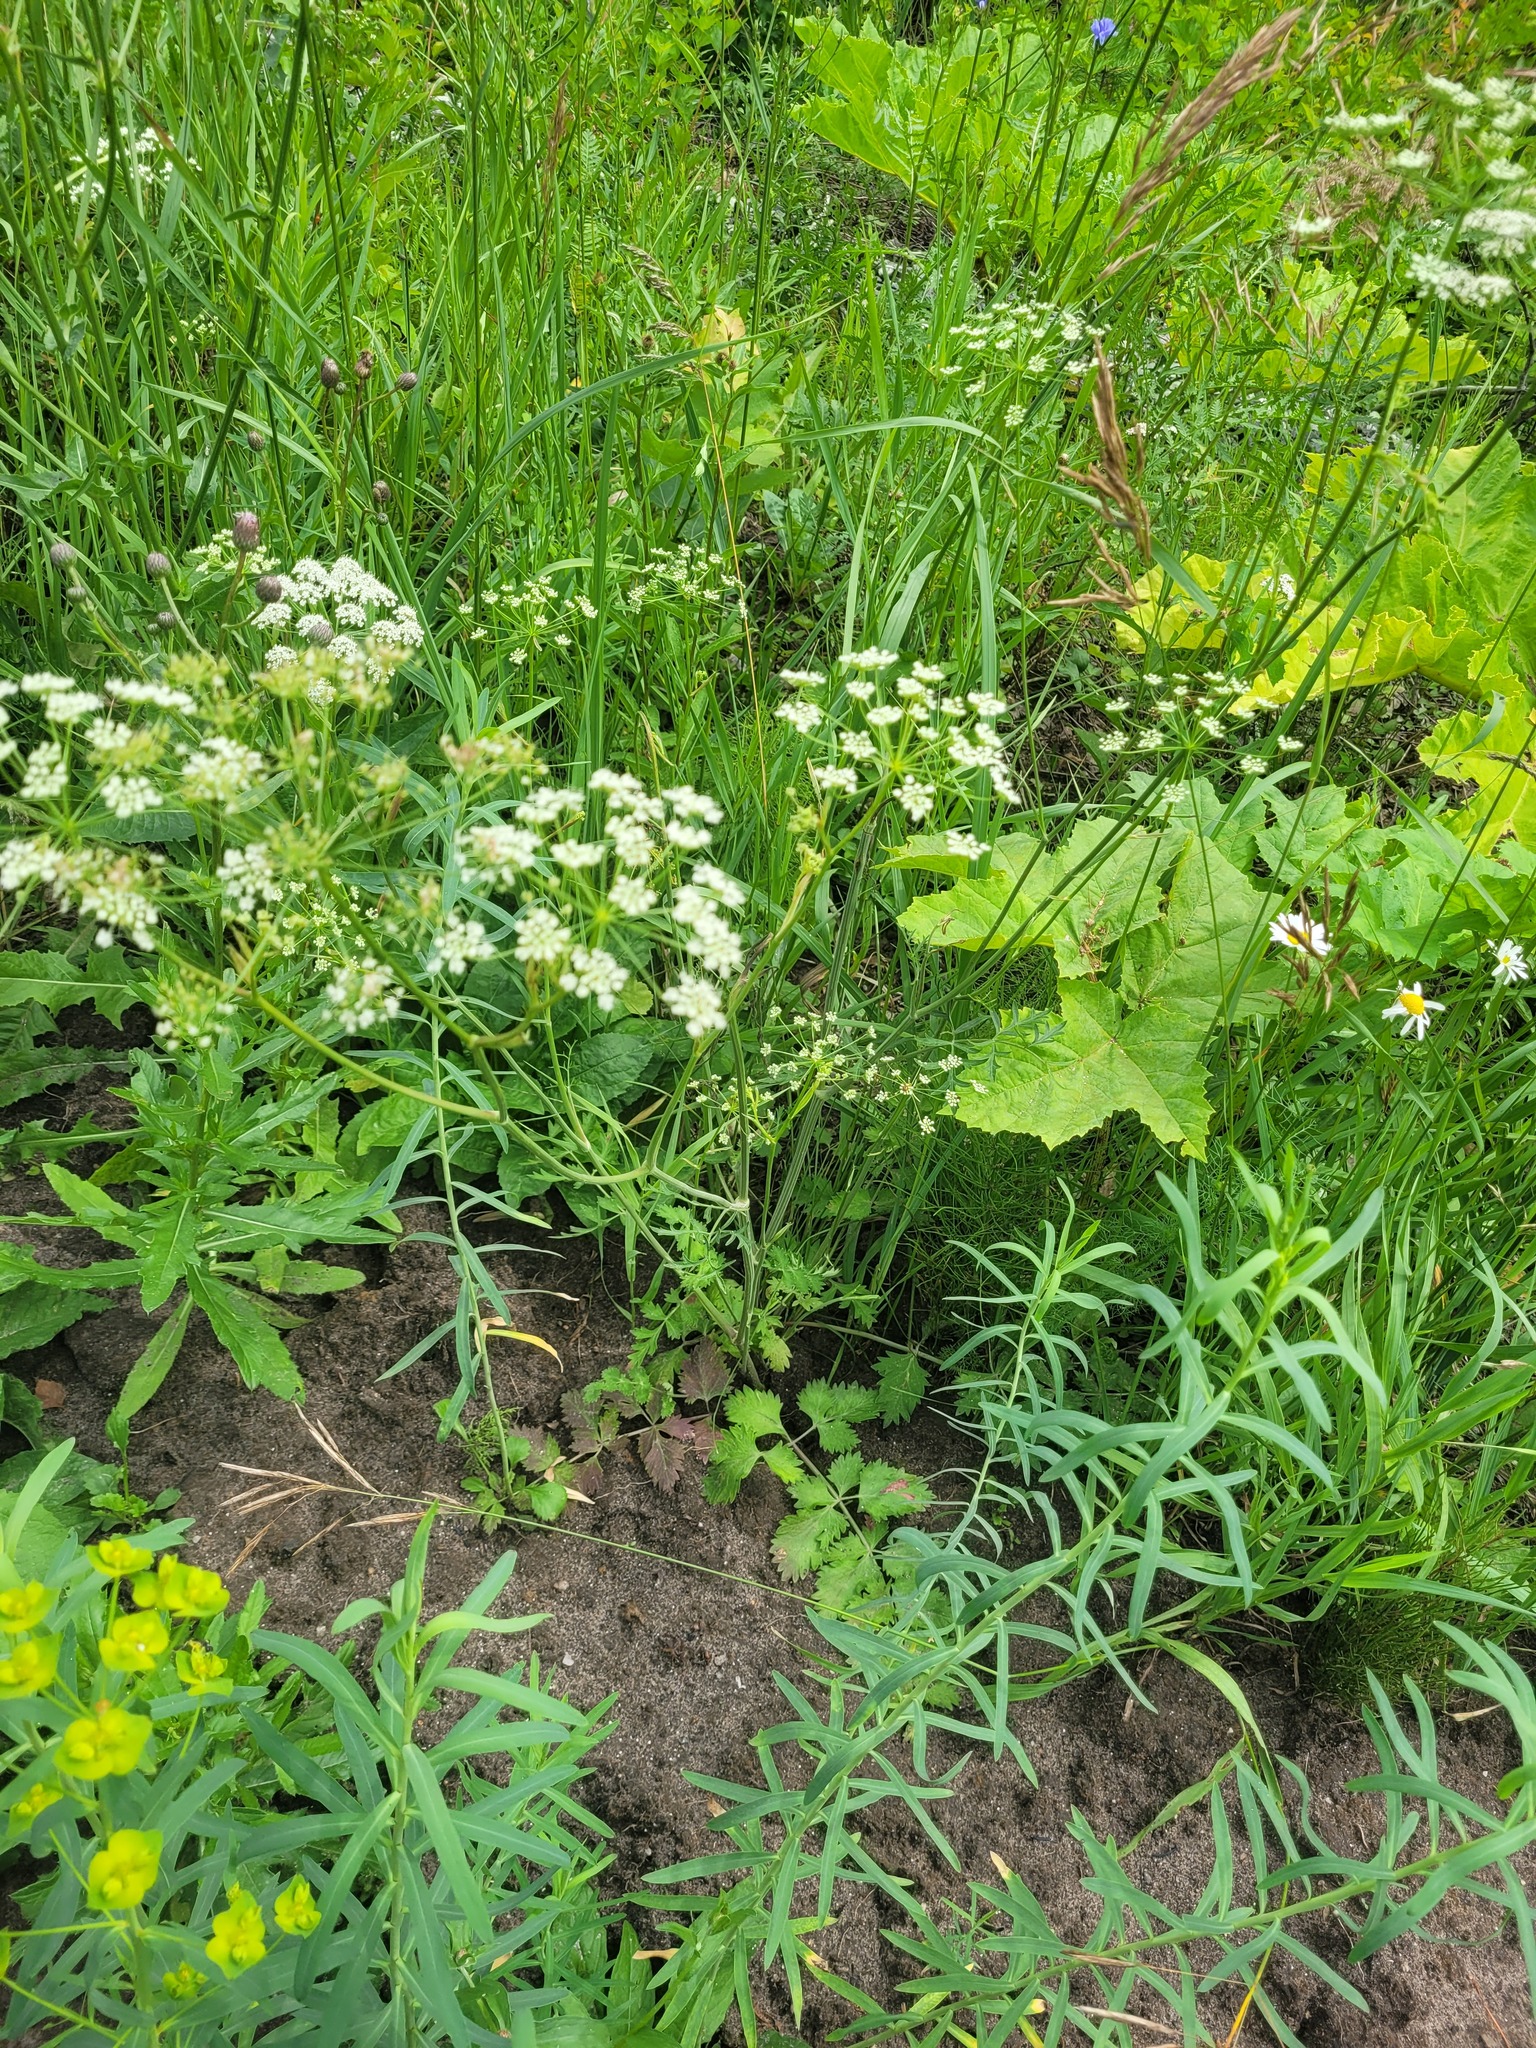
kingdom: Plantae
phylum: Tracheophyta
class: Magnoliopsida
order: Apiales
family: Apiaceae
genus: Pimpinella
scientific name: Pimpinella saxifraga
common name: Burnet-saxifrage
